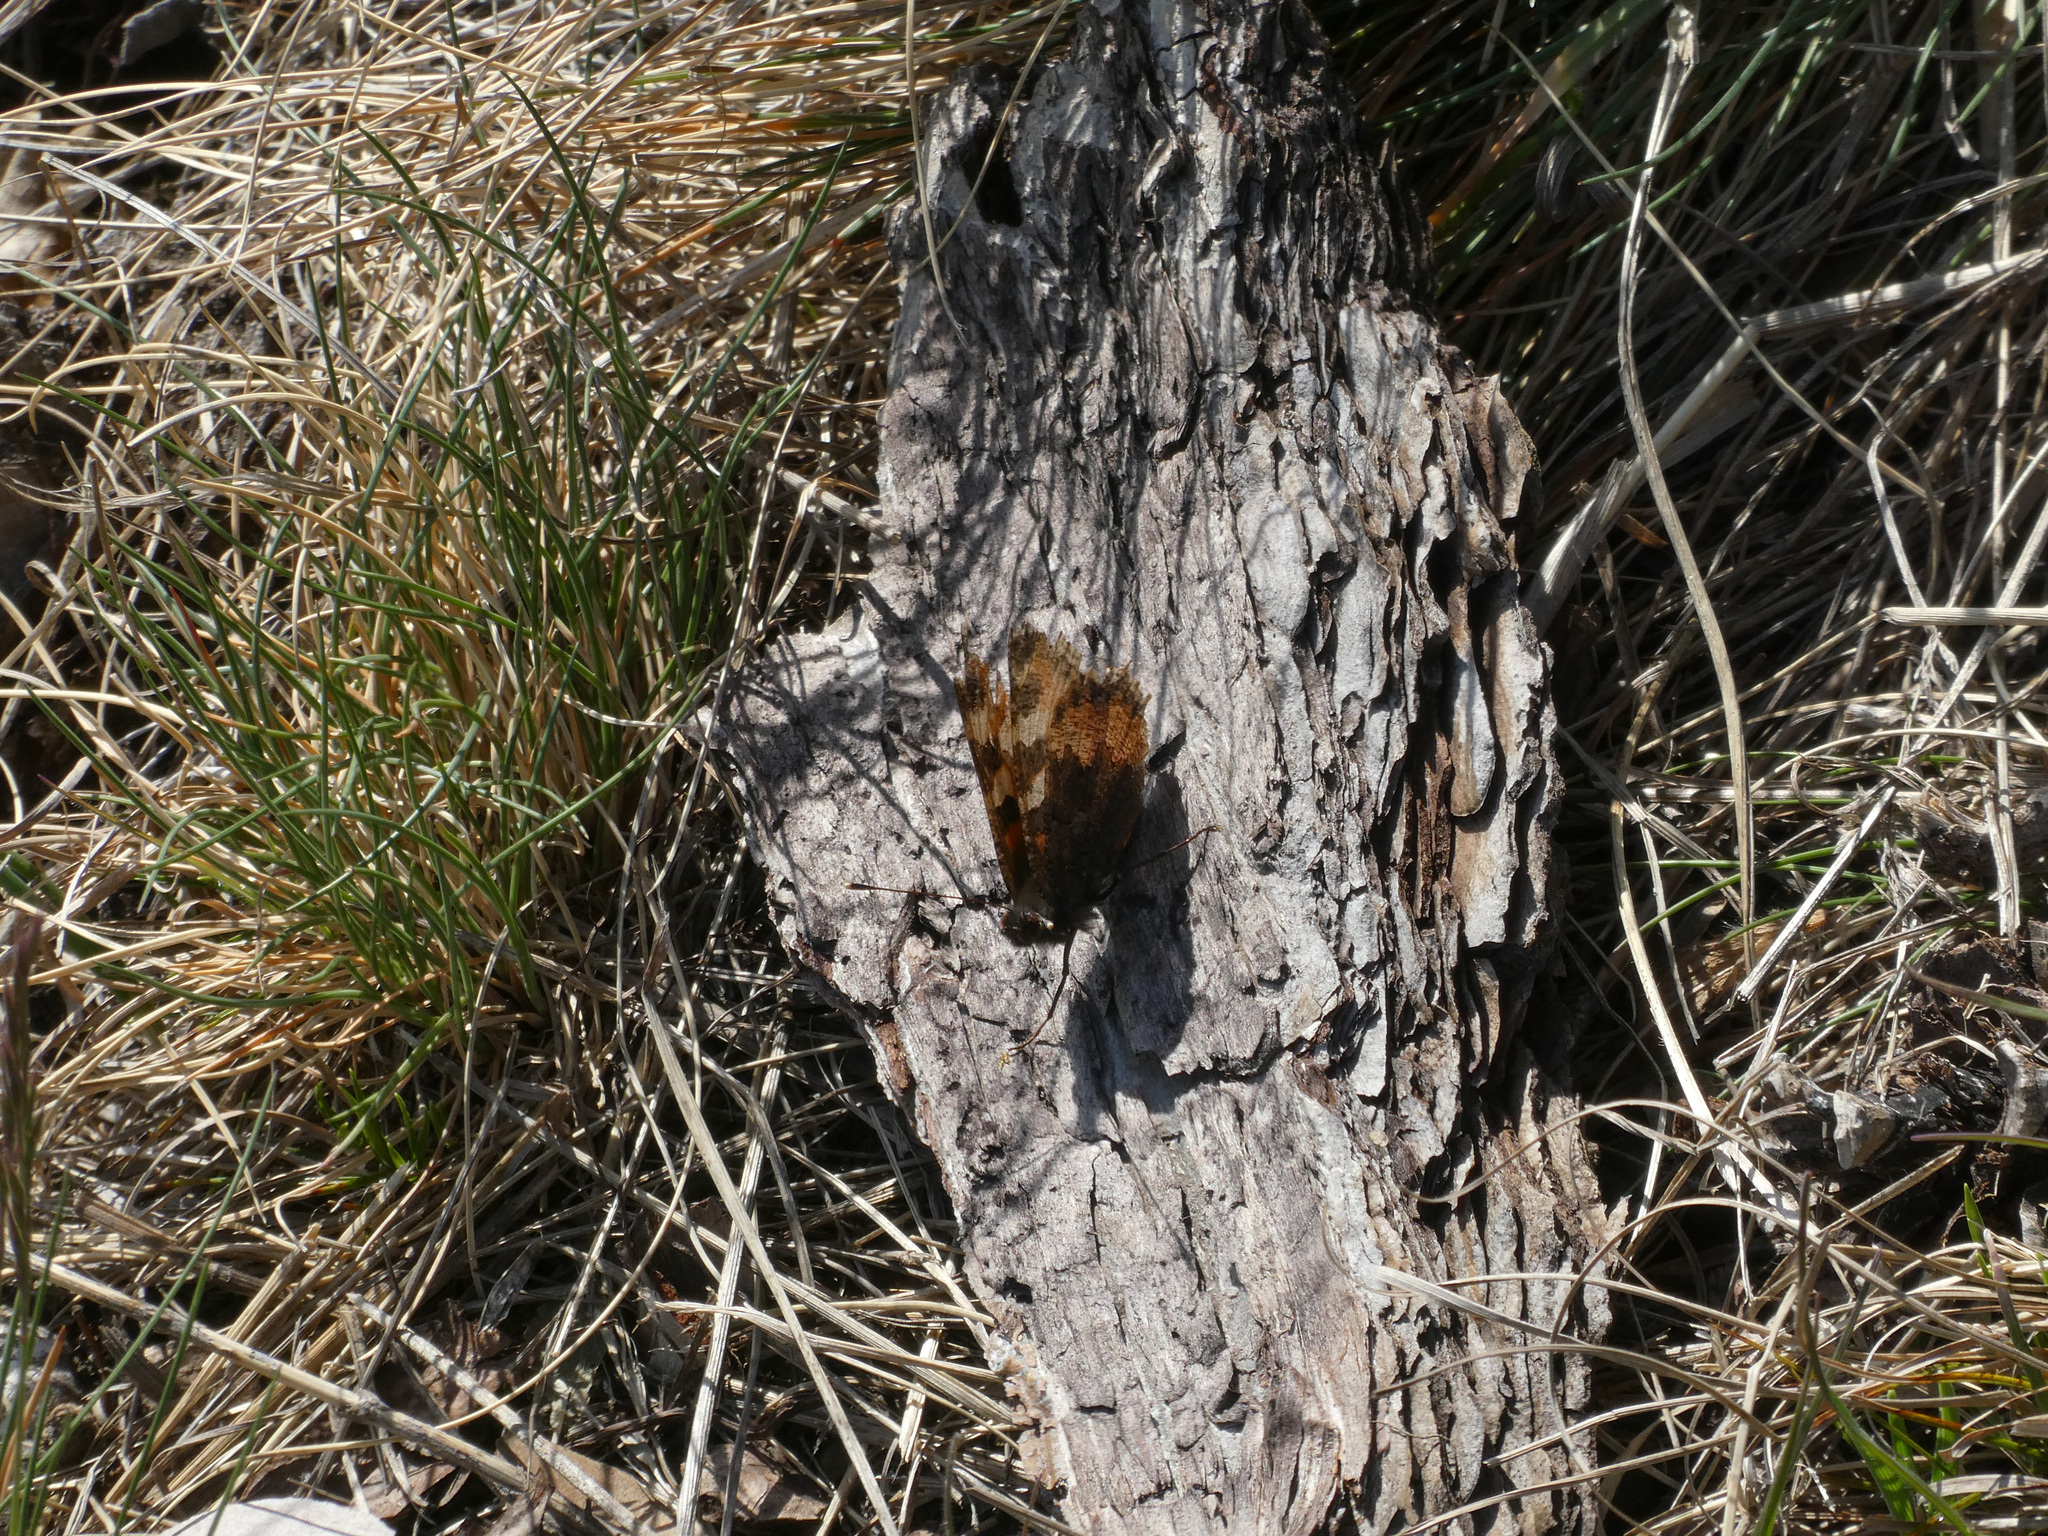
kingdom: Animalia
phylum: Arthropoda
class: Insecta
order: Lepidoptera
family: Nymphalidae
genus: Aglais
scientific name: Aglais urticae
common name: Small tortoiseshell
